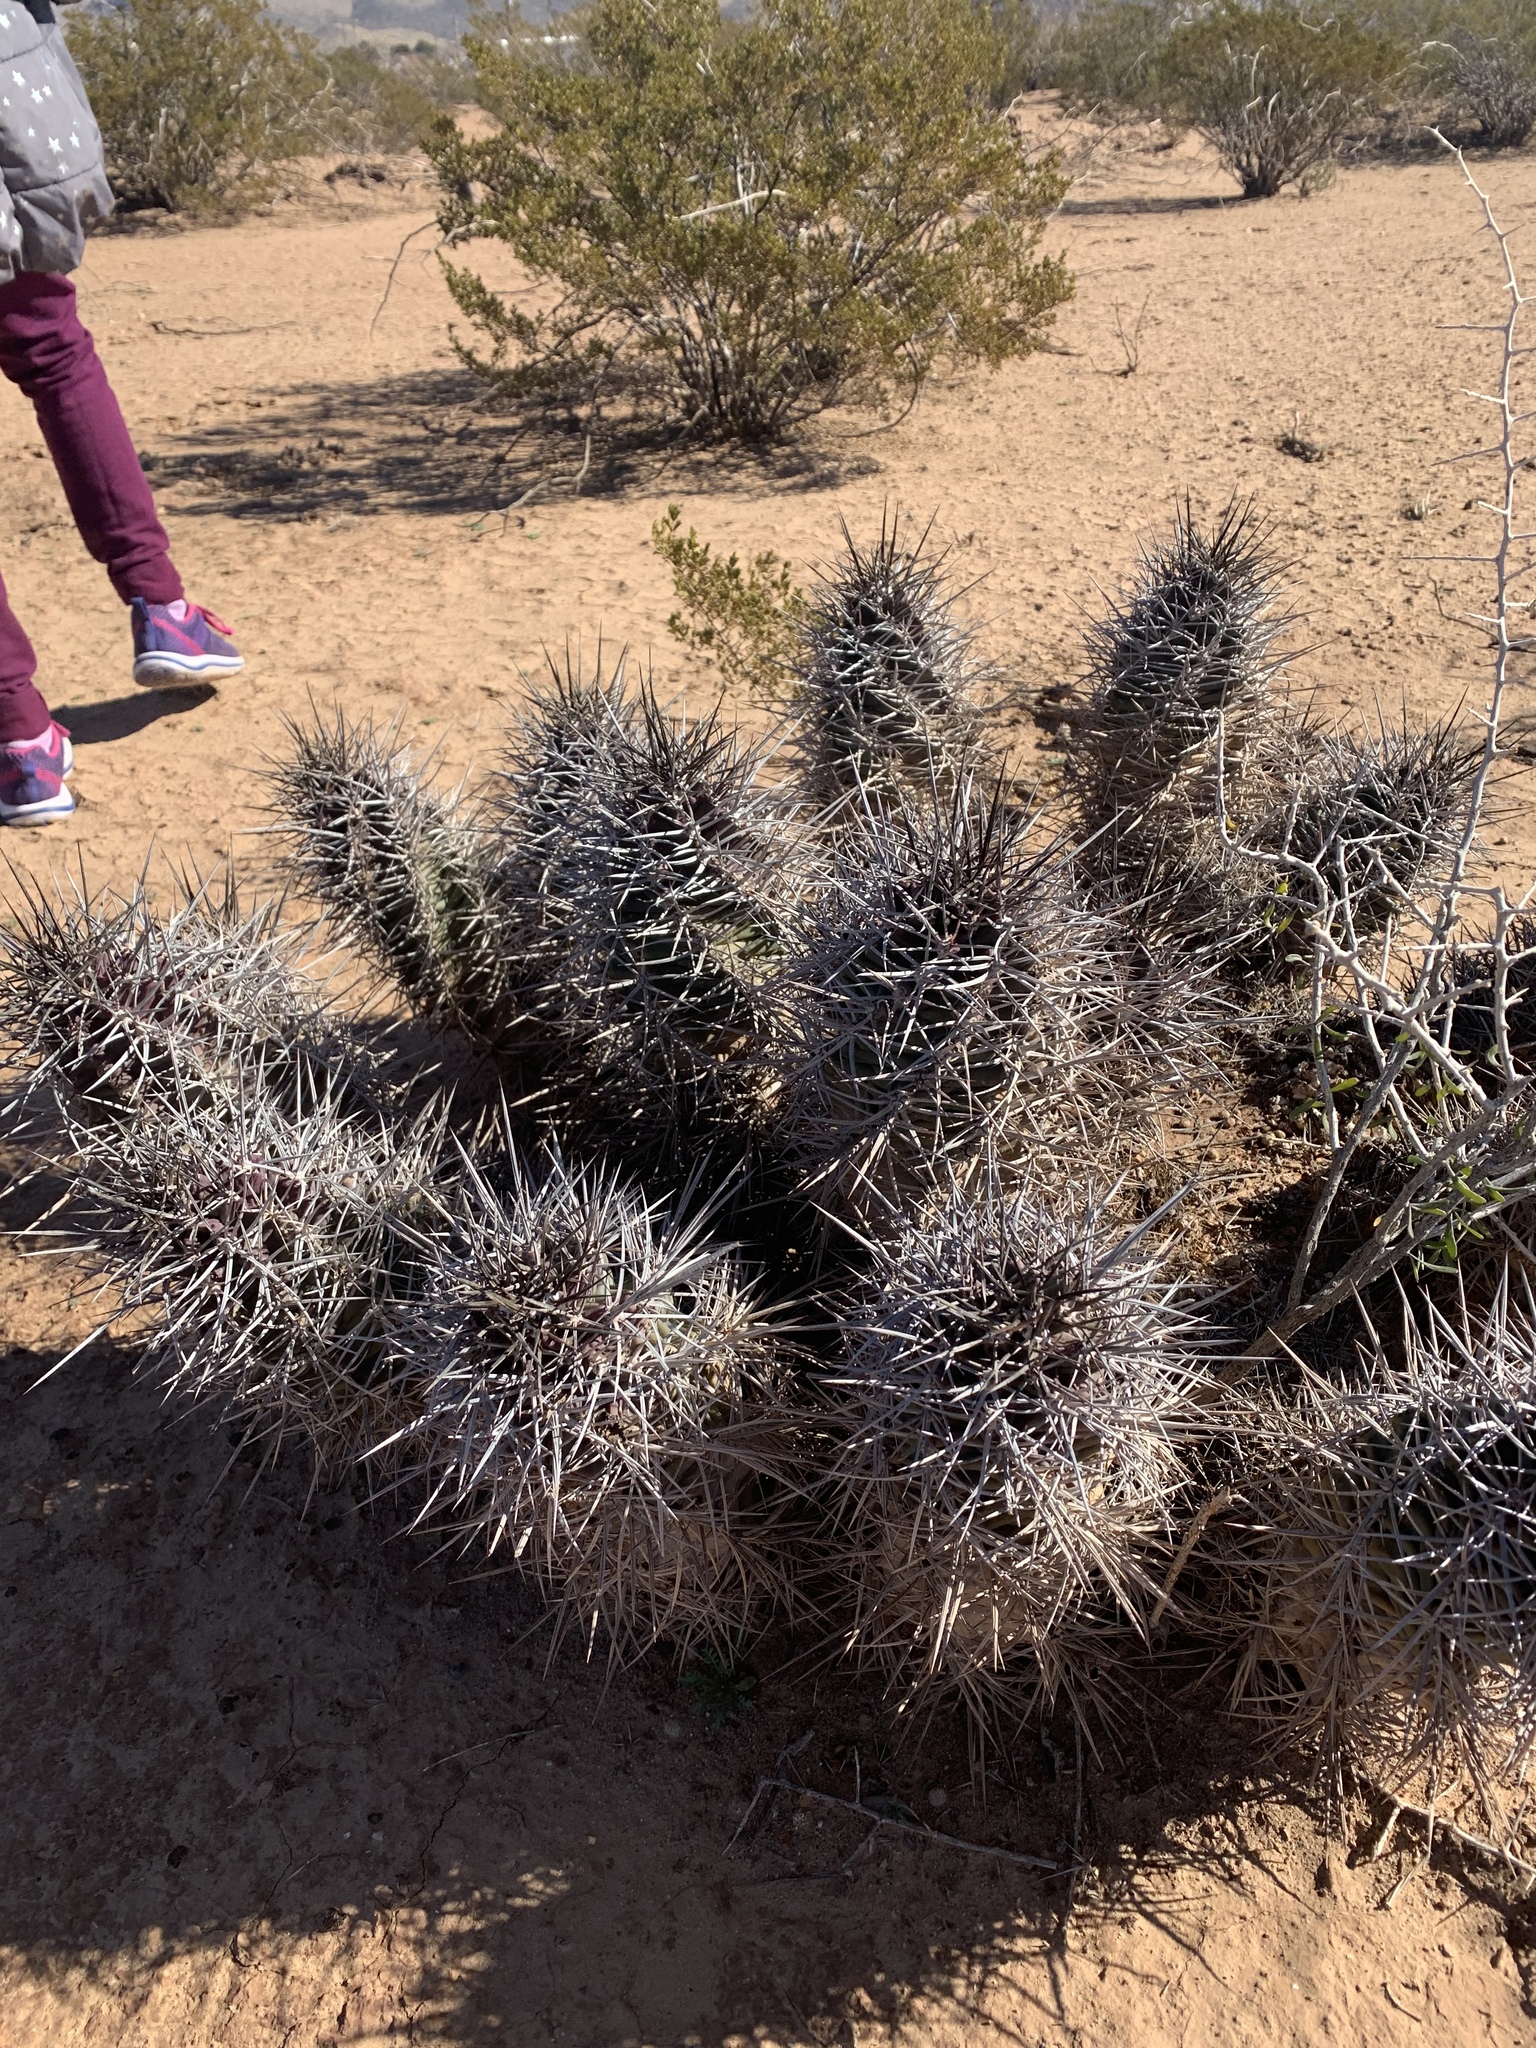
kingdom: Plantae
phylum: Tracheophyta
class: Magnoliopsida
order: Caryophyllales
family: Cactaceae
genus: Echinocereus
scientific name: Echinocereus triglochidiatus
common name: Claretcup hedgehog
